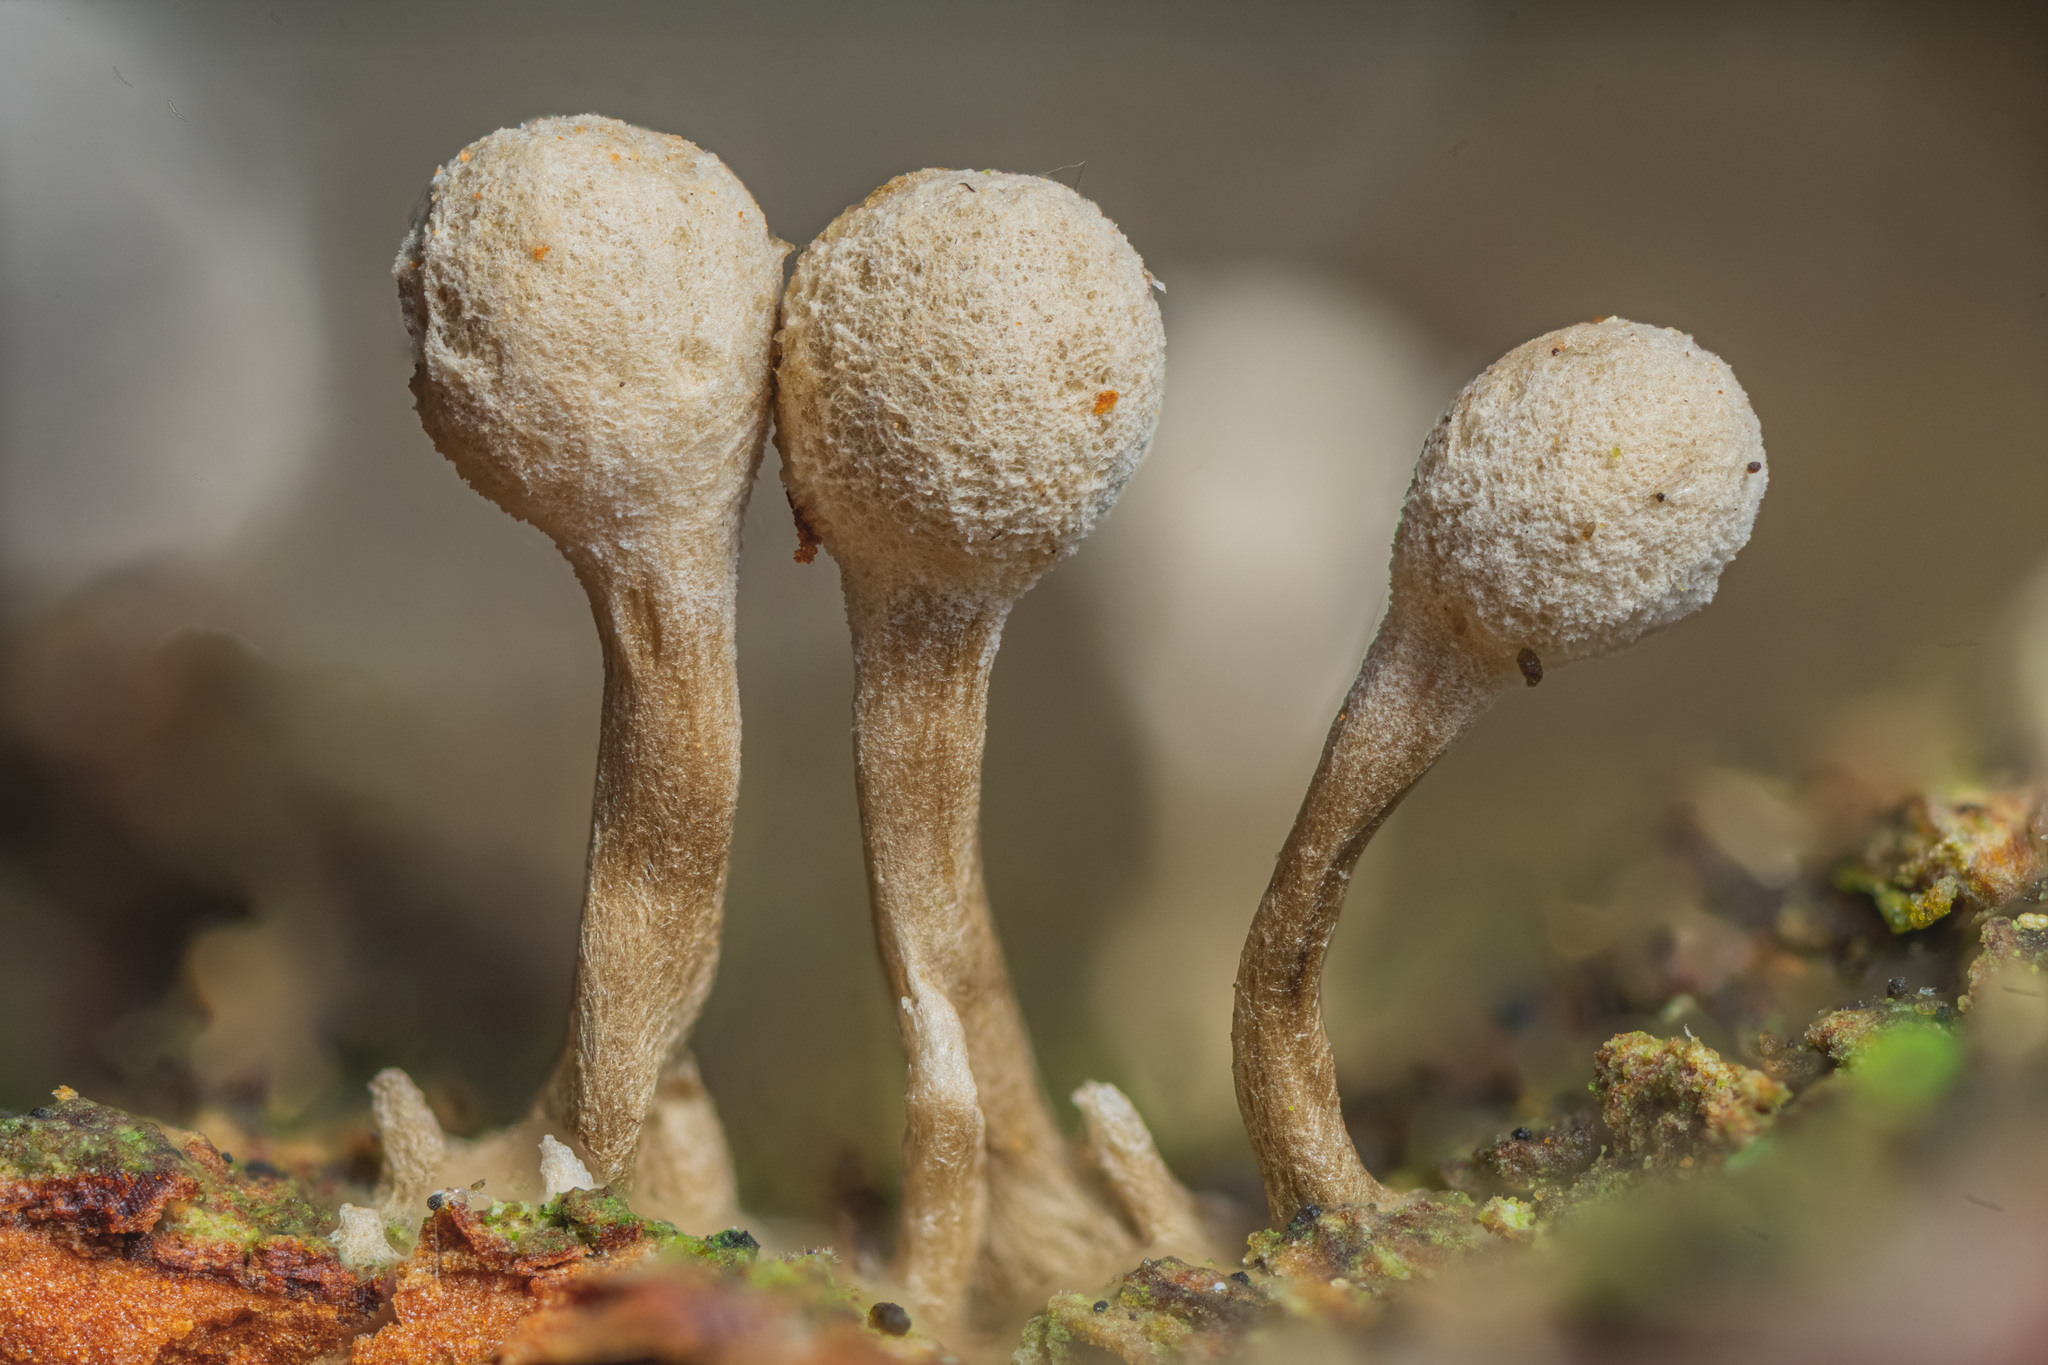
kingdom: Fungi
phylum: Basidiomycota
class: Atractiellomycetes
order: Atractiellales
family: Phleogenaceae
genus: Phleogena
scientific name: Phleogena faginea
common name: Fenugreek stalkball
